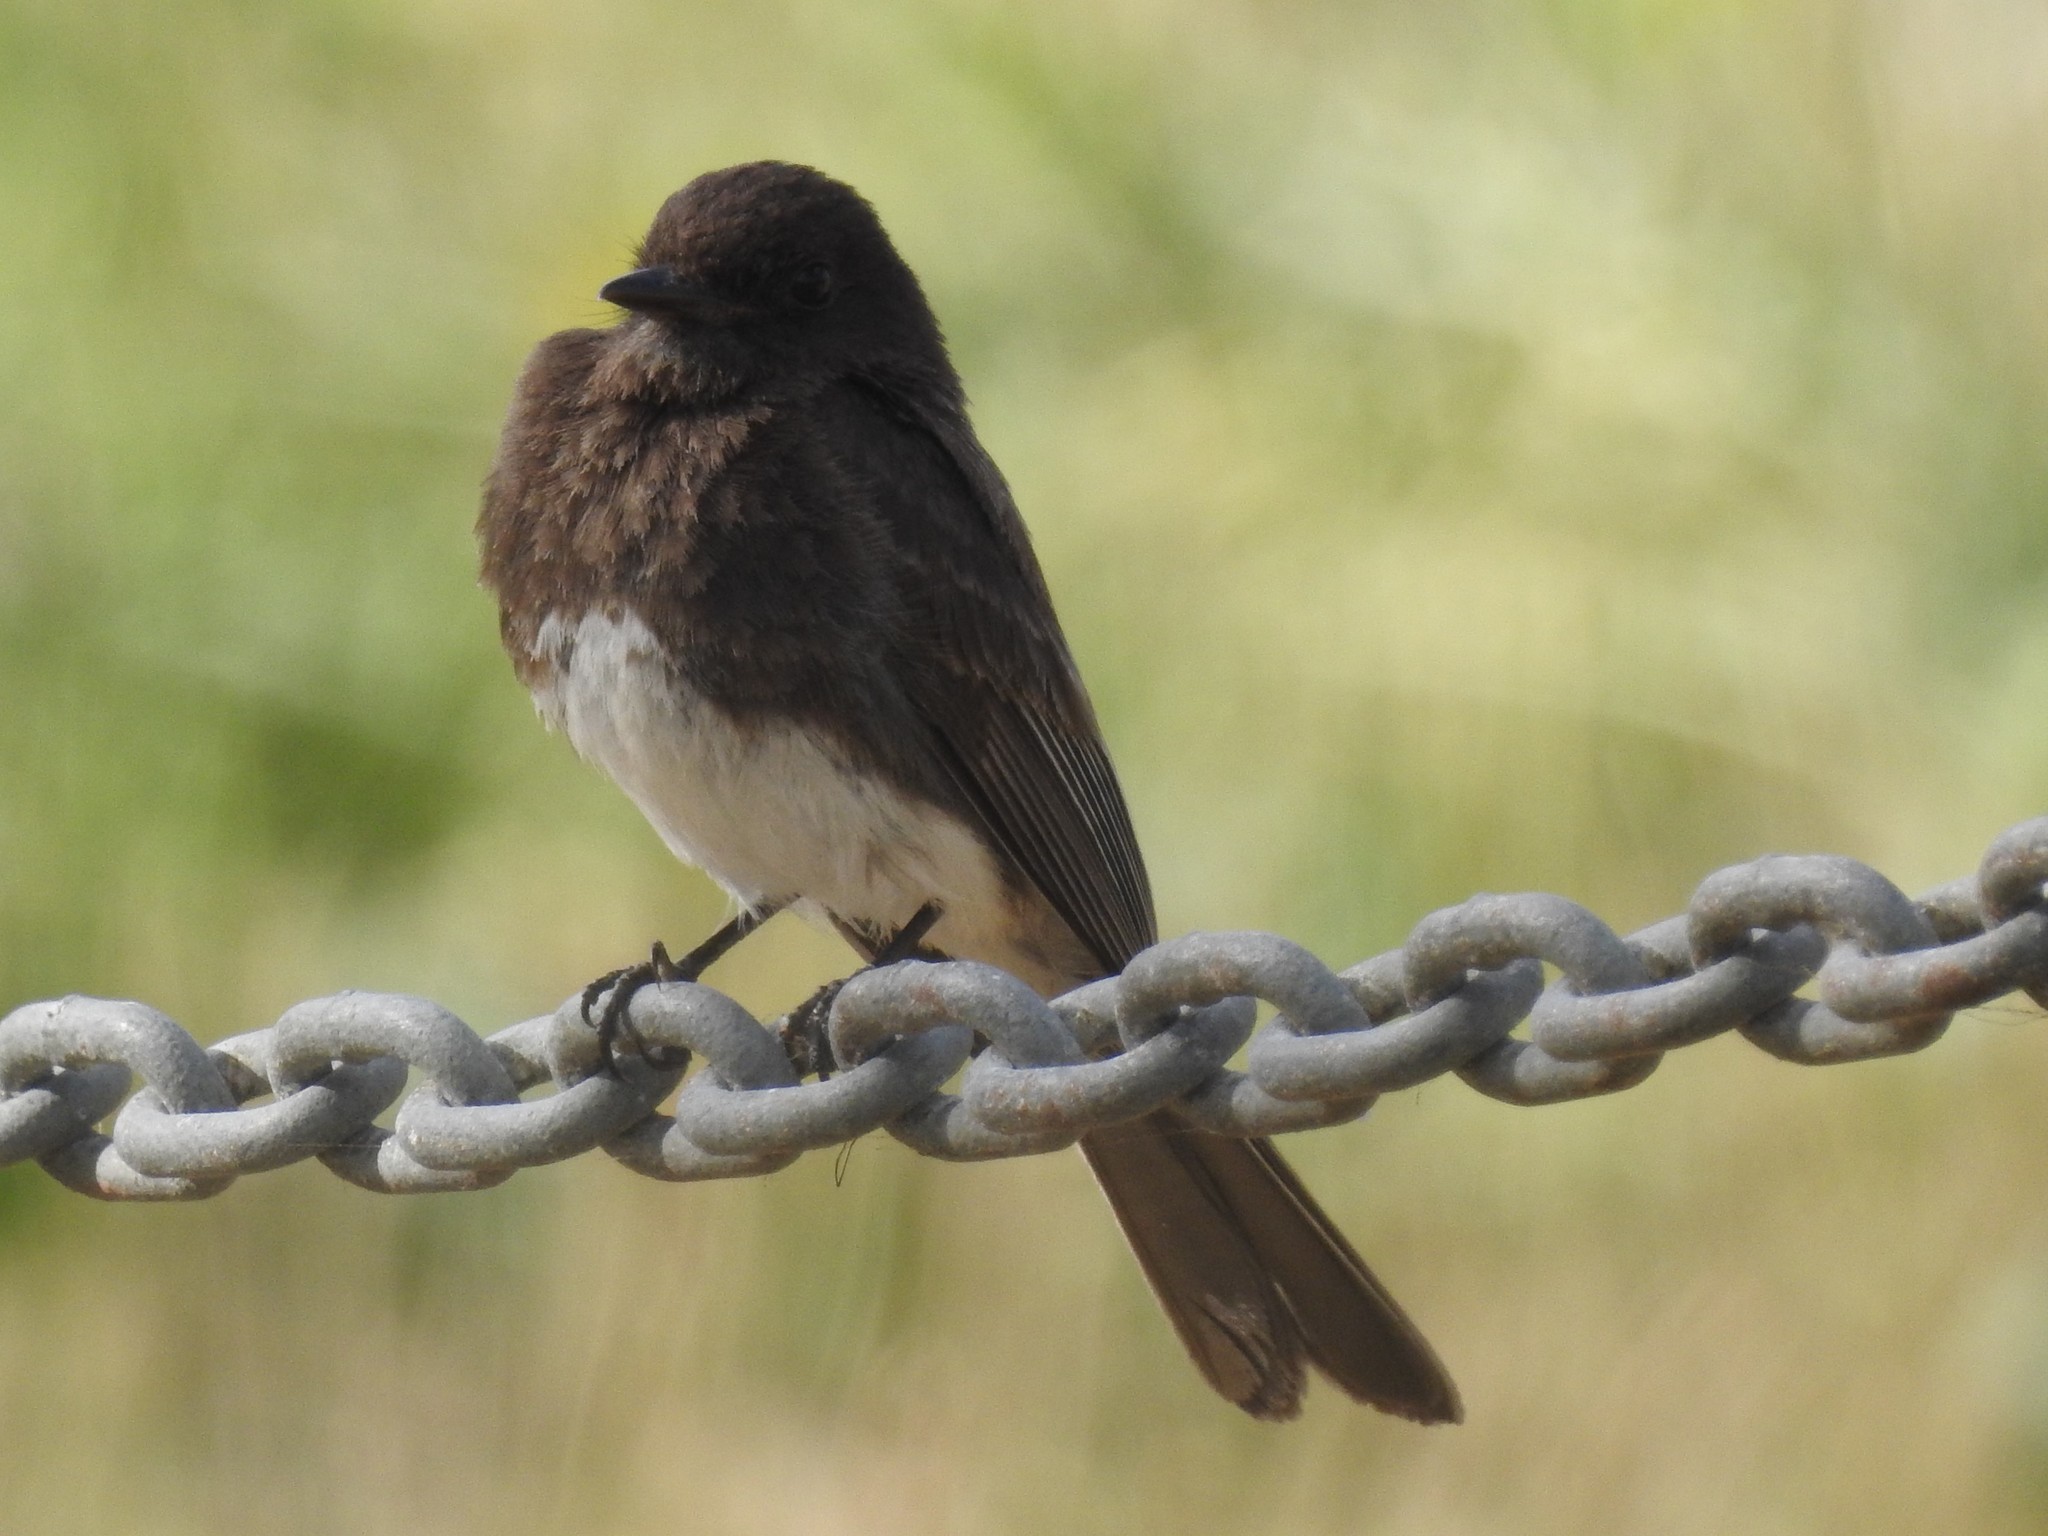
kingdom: Animalia
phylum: Chordata
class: Aves
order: Passeriformes
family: Tyrannidae
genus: Sayornis
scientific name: Sayornis nigricans
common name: Black phoebe
